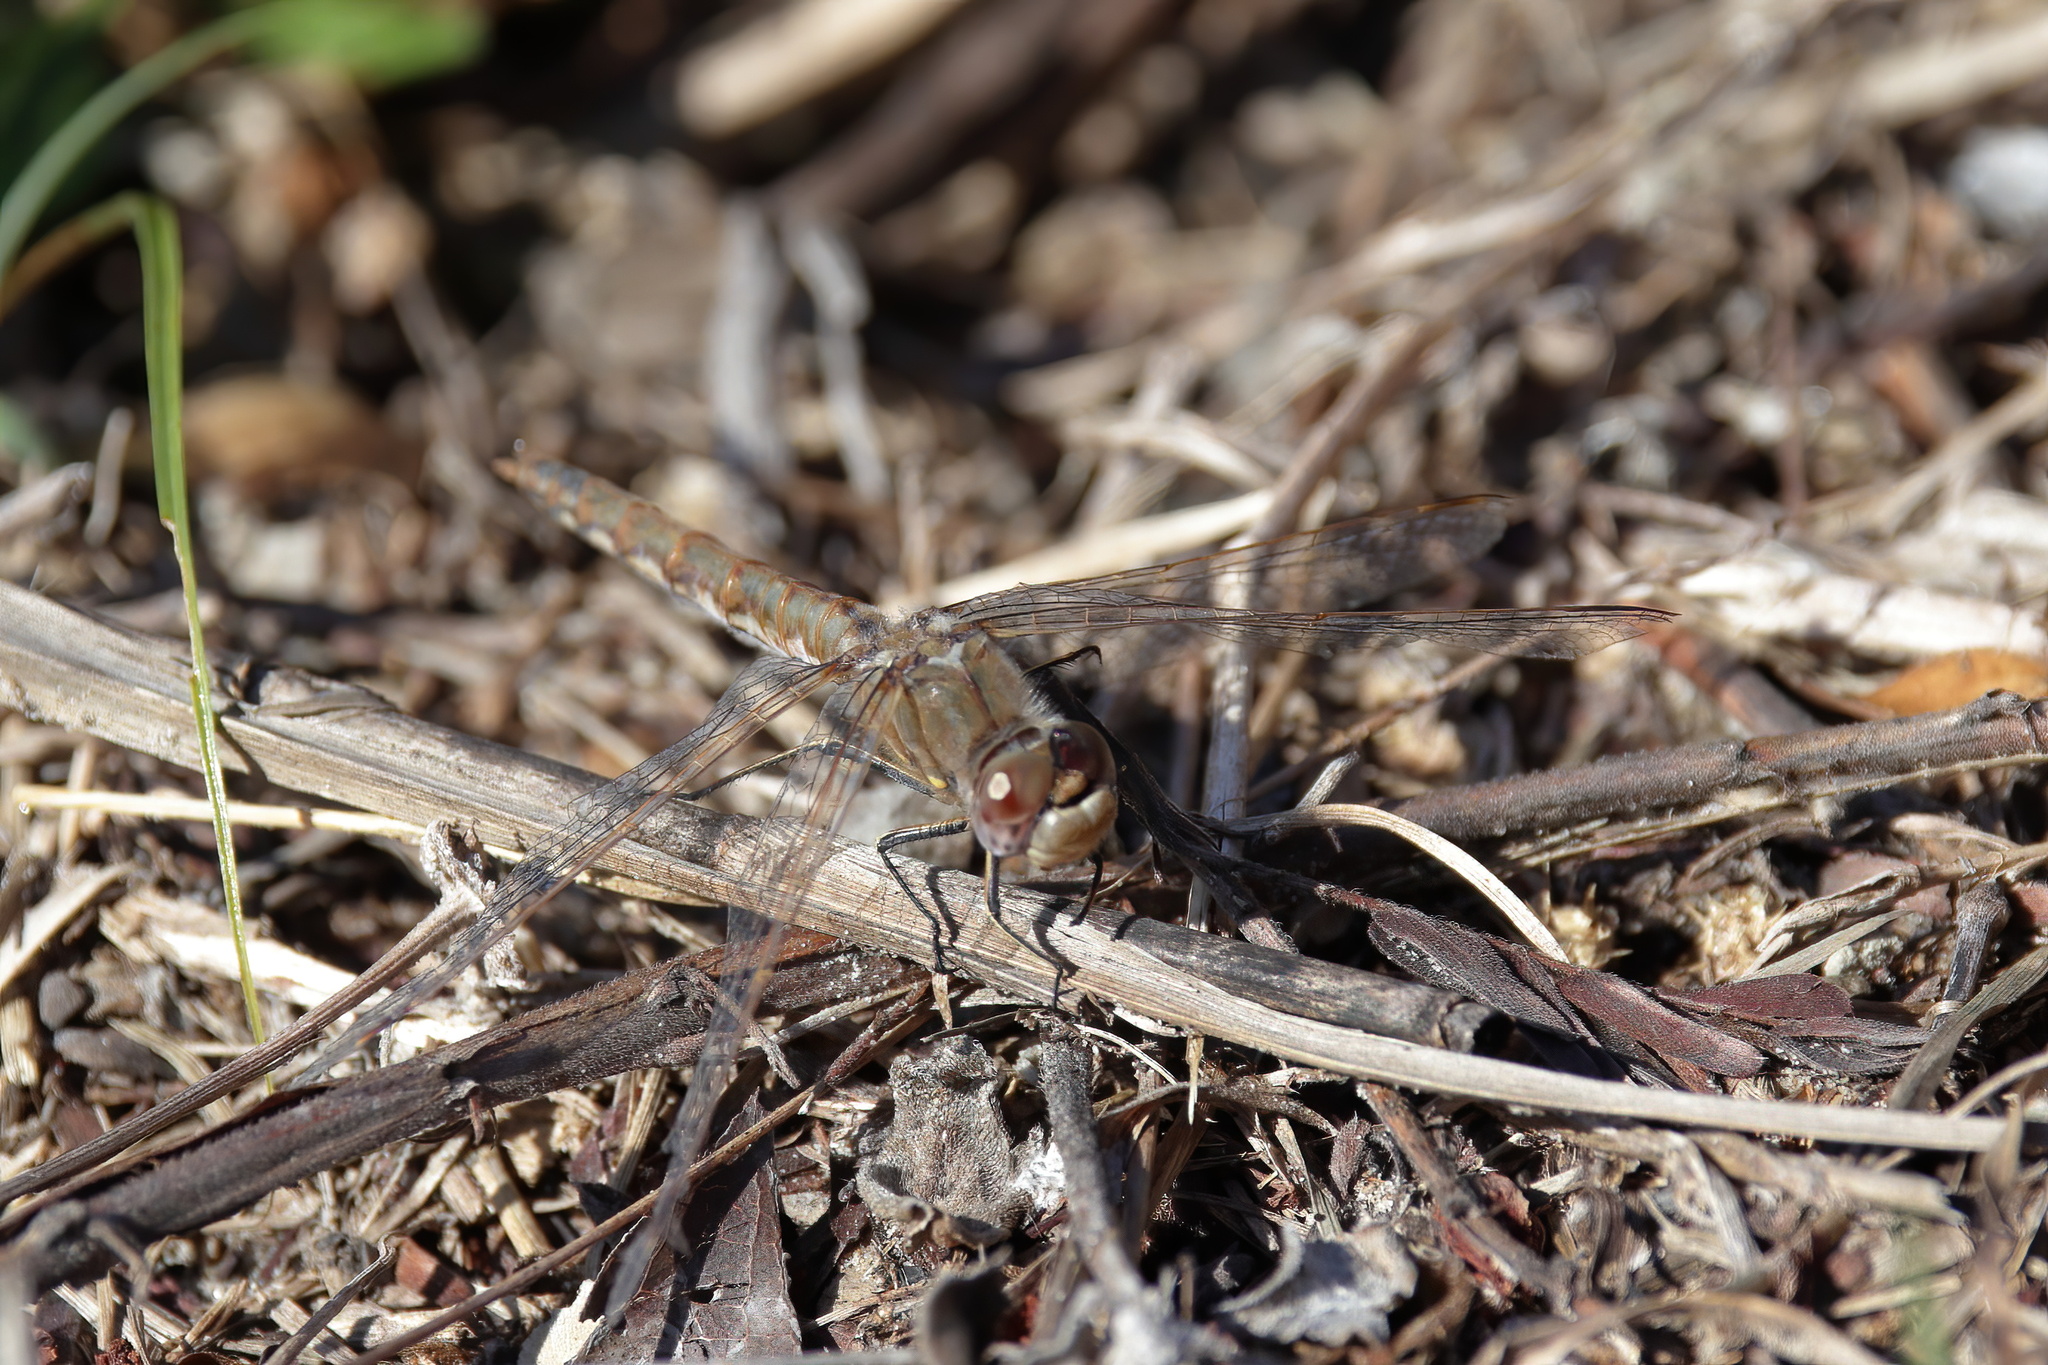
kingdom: Animalia
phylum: Arthropoda
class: Insecta
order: Odonata
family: Libellulidae
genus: Sympetrum
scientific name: Sympetrum corruptum
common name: Variegated meadowhawk
